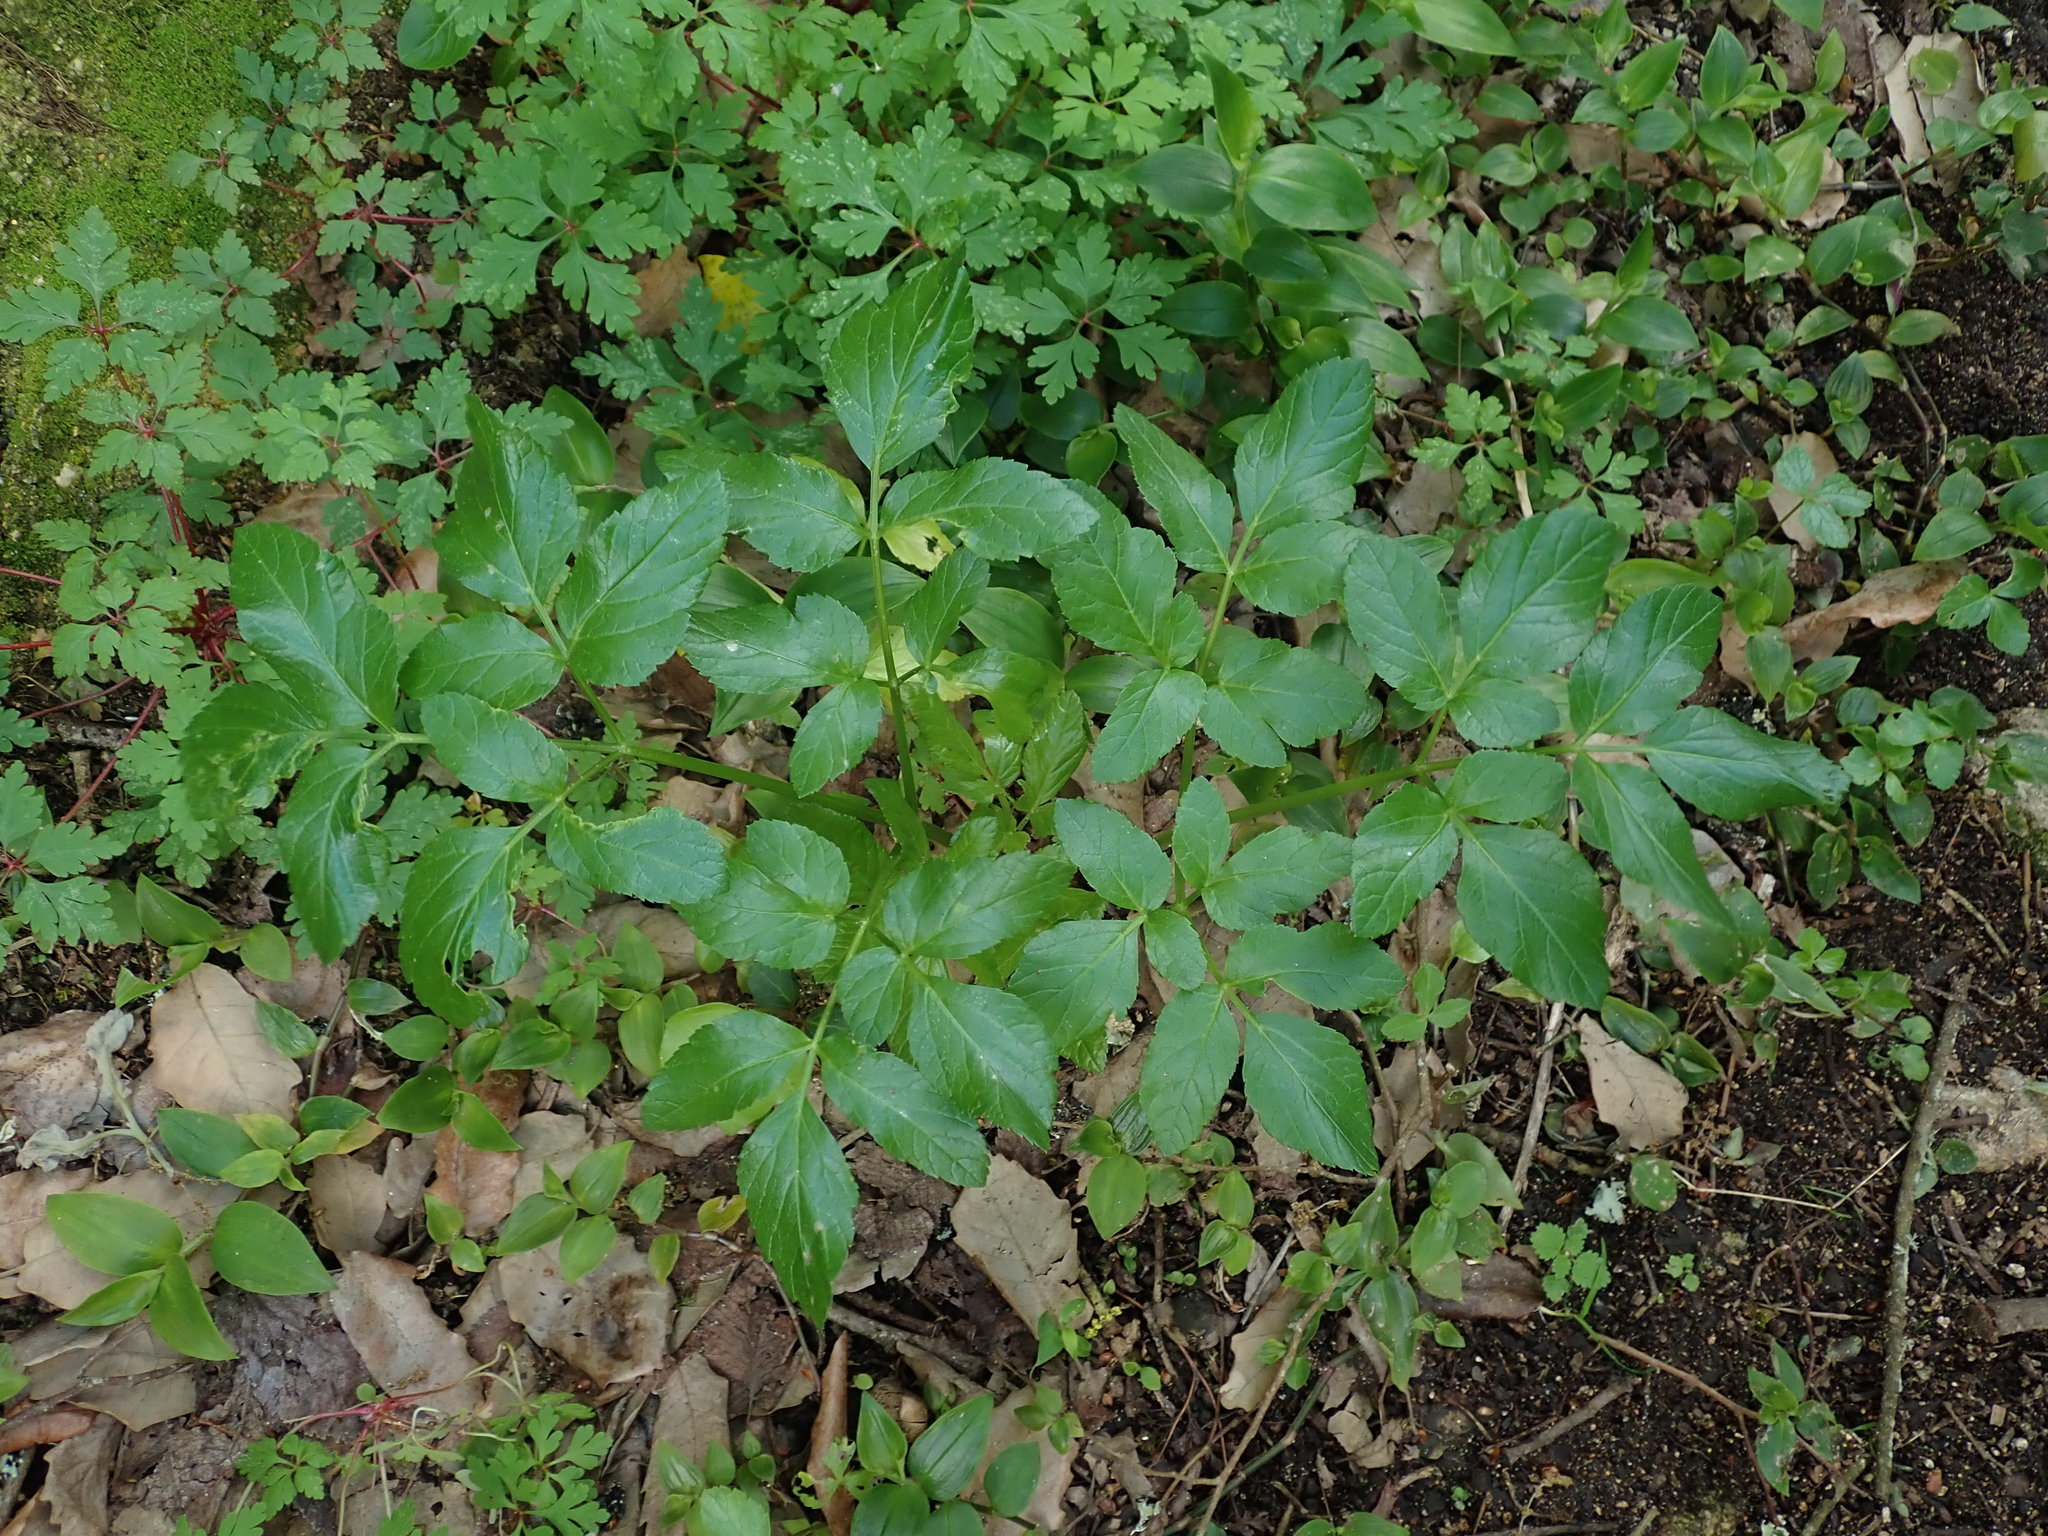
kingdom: Plantae
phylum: Tracheophyta
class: Magnoliopsida
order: Apiales
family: Apiaceae
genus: Smyrnium
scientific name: Smyrnium olusatrum
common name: Alexanders
